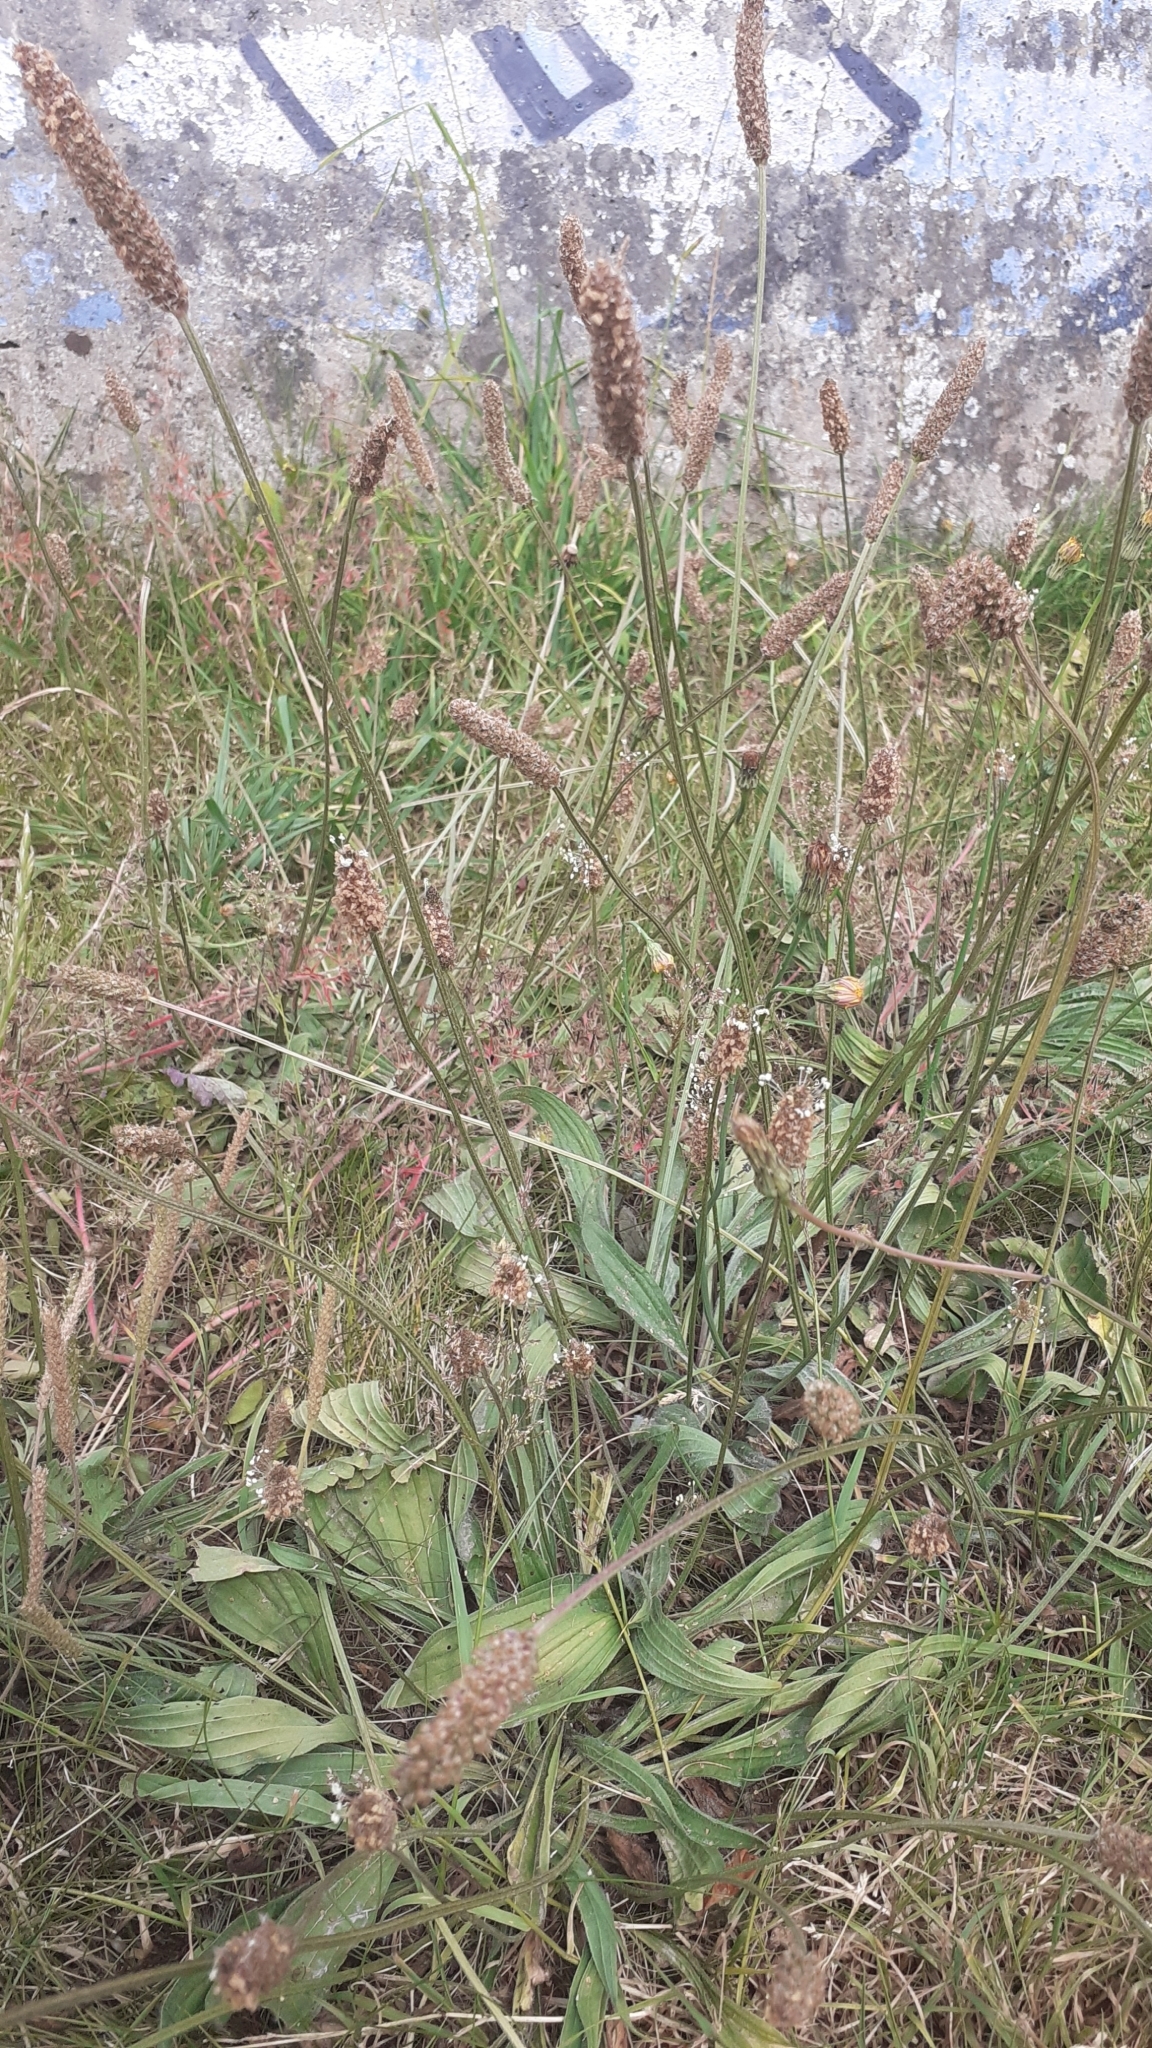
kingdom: Plantae
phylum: Tracheophyta
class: Magnoliopsida
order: Lamiales
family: Plantaginaceae
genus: Plantago
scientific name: Plantago lanceolata
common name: Ribwort plantain
